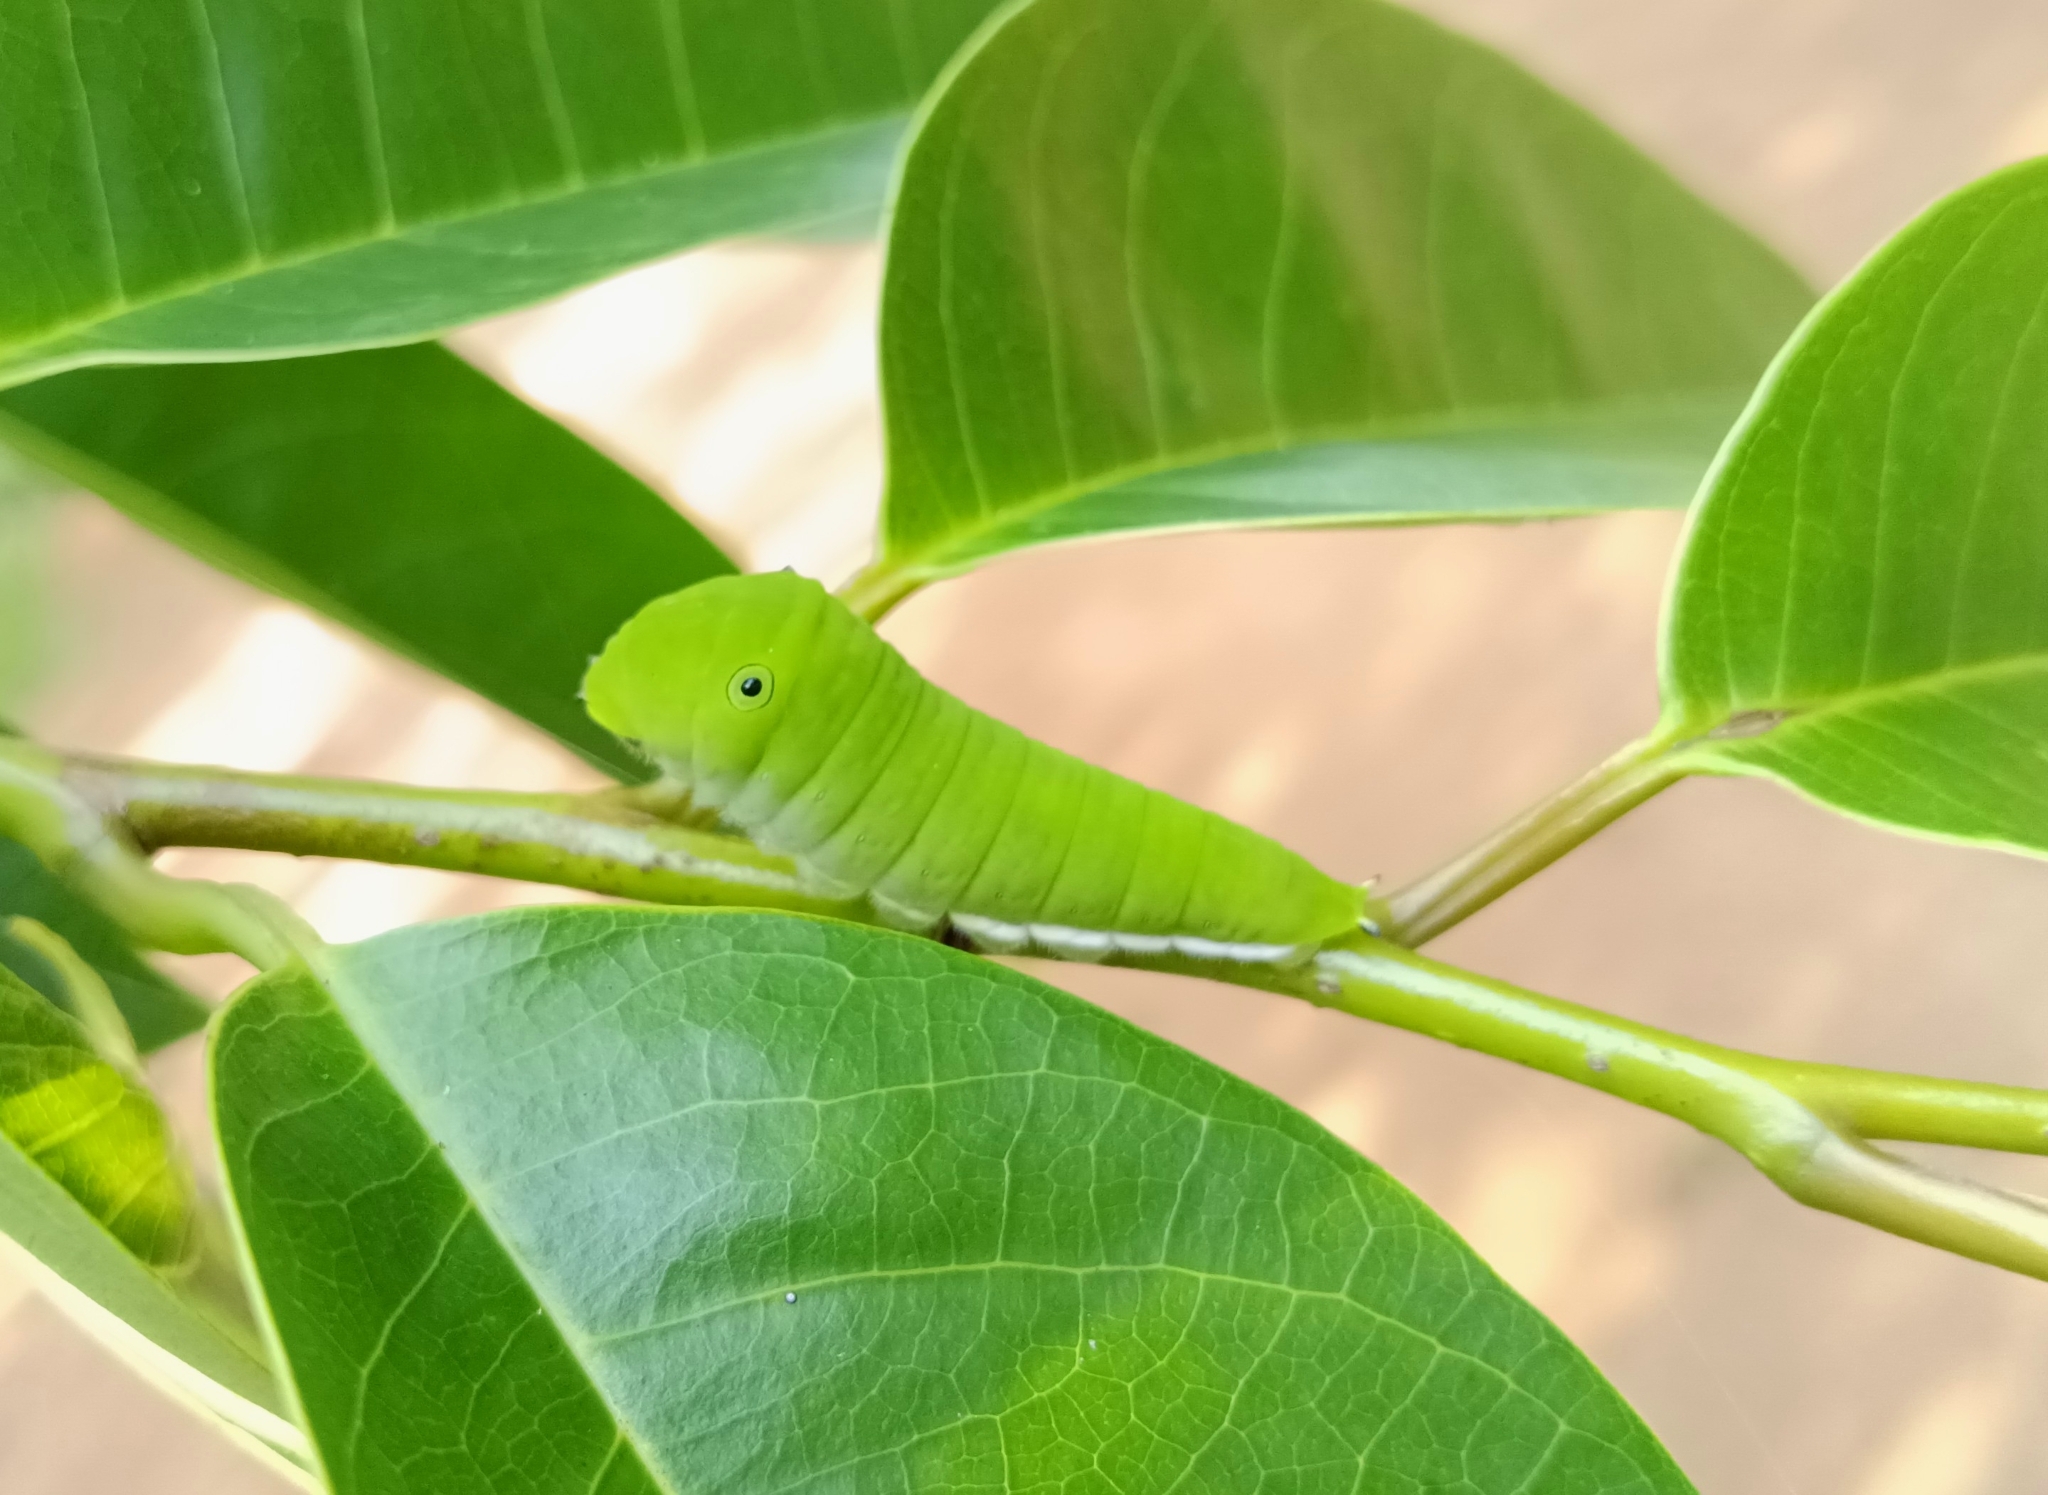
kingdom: Animalia
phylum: Arthropoda
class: Insecta
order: Lepidoptera
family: Papilionidae
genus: Graphium
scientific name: Graphium doson
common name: Common jay
